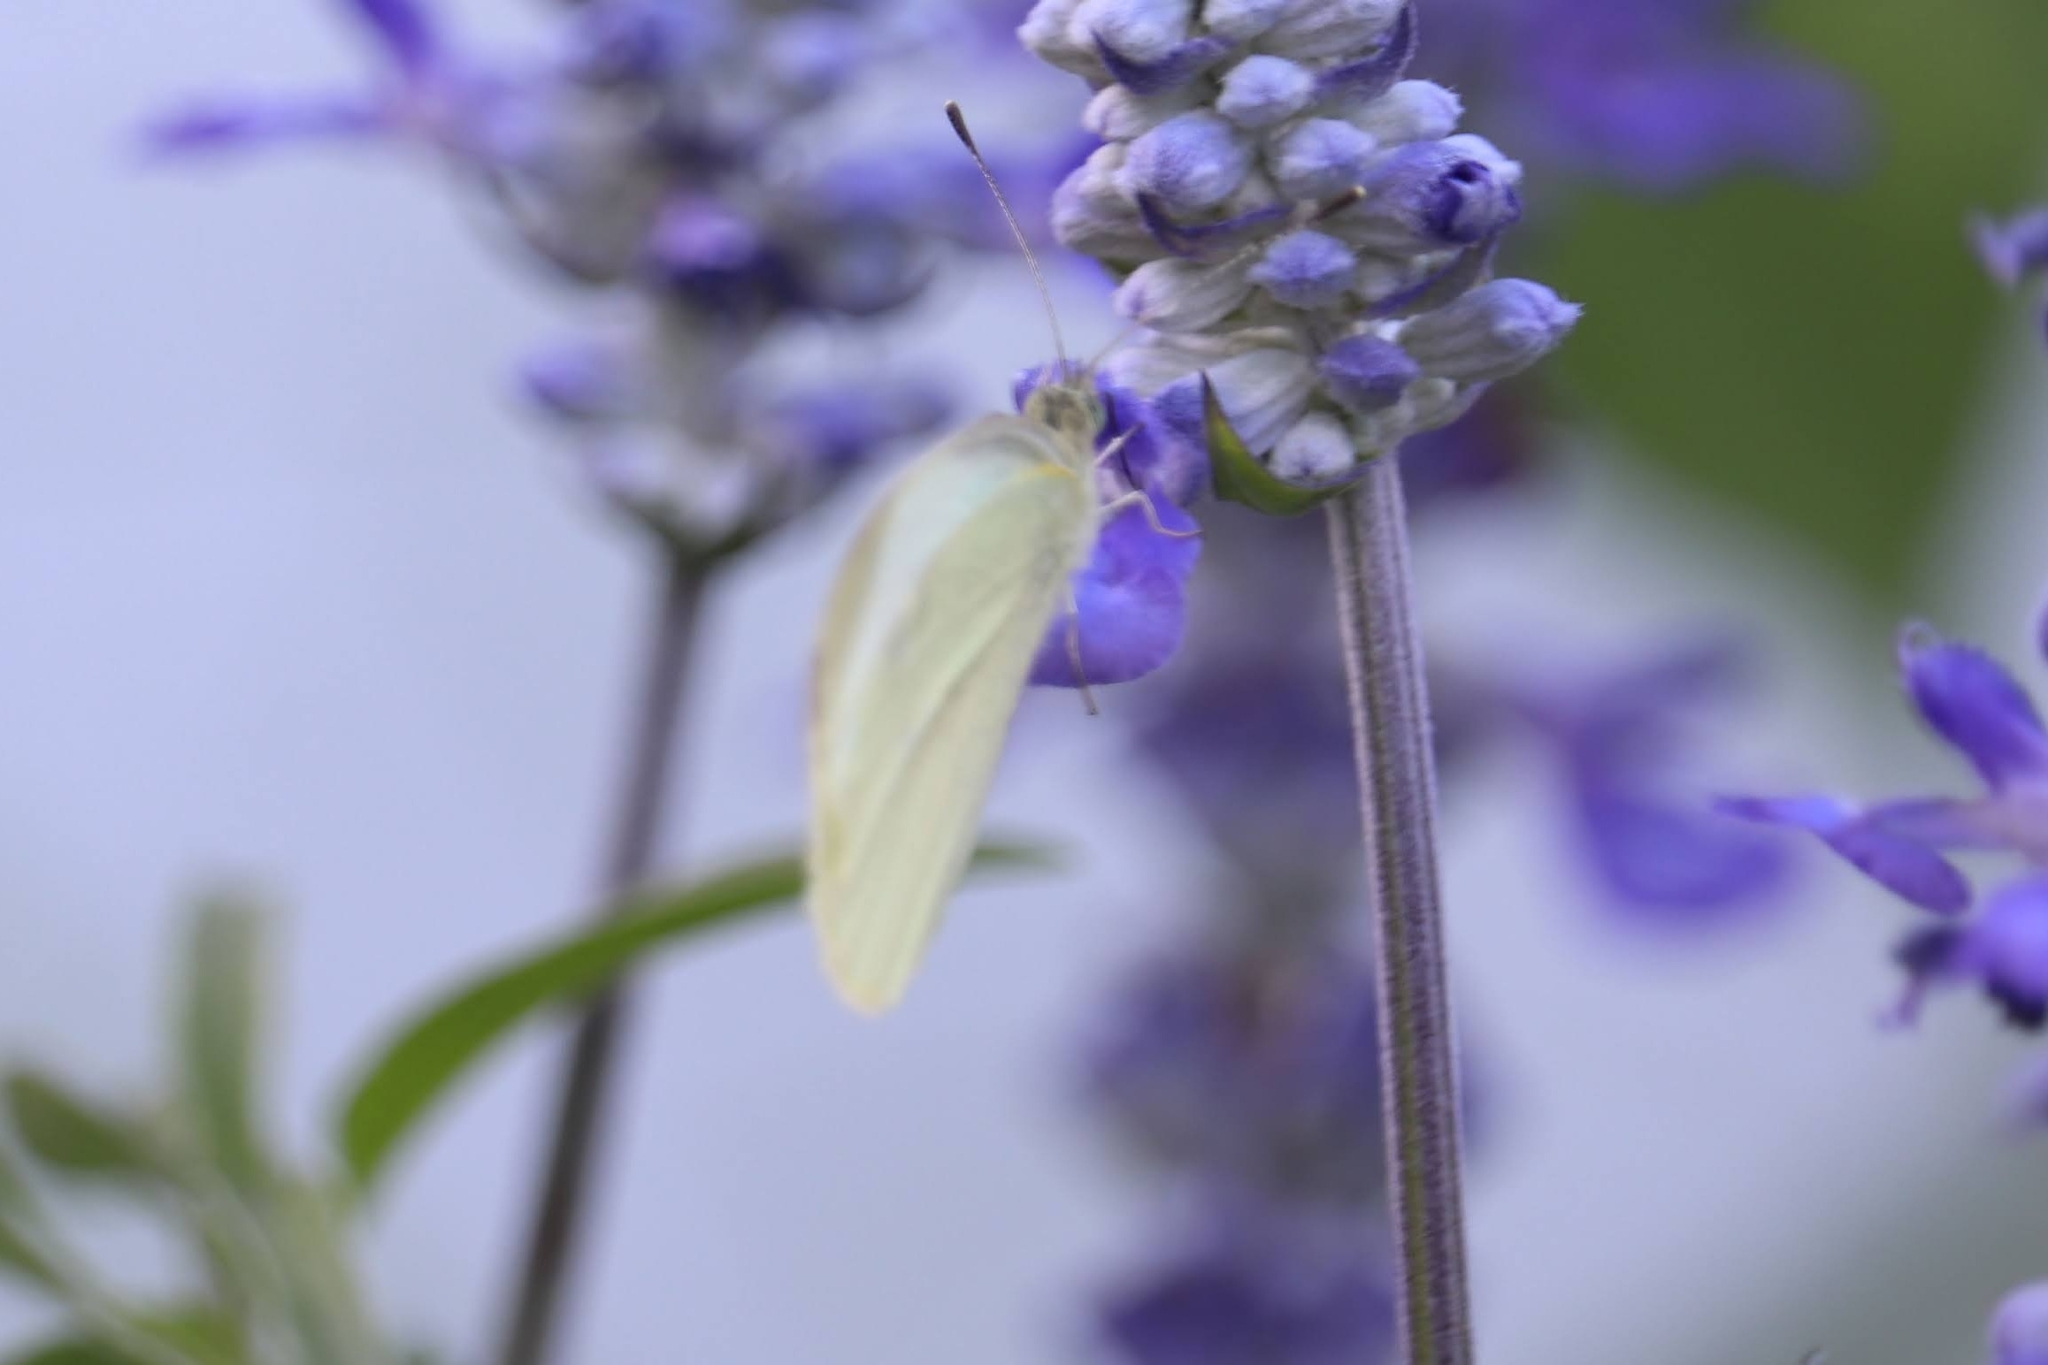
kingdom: Animalia
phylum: Arthropoda
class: Insecta
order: Lepidoptera
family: Pieridae
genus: Pieris
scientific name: Pieris rapae
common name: Small white
